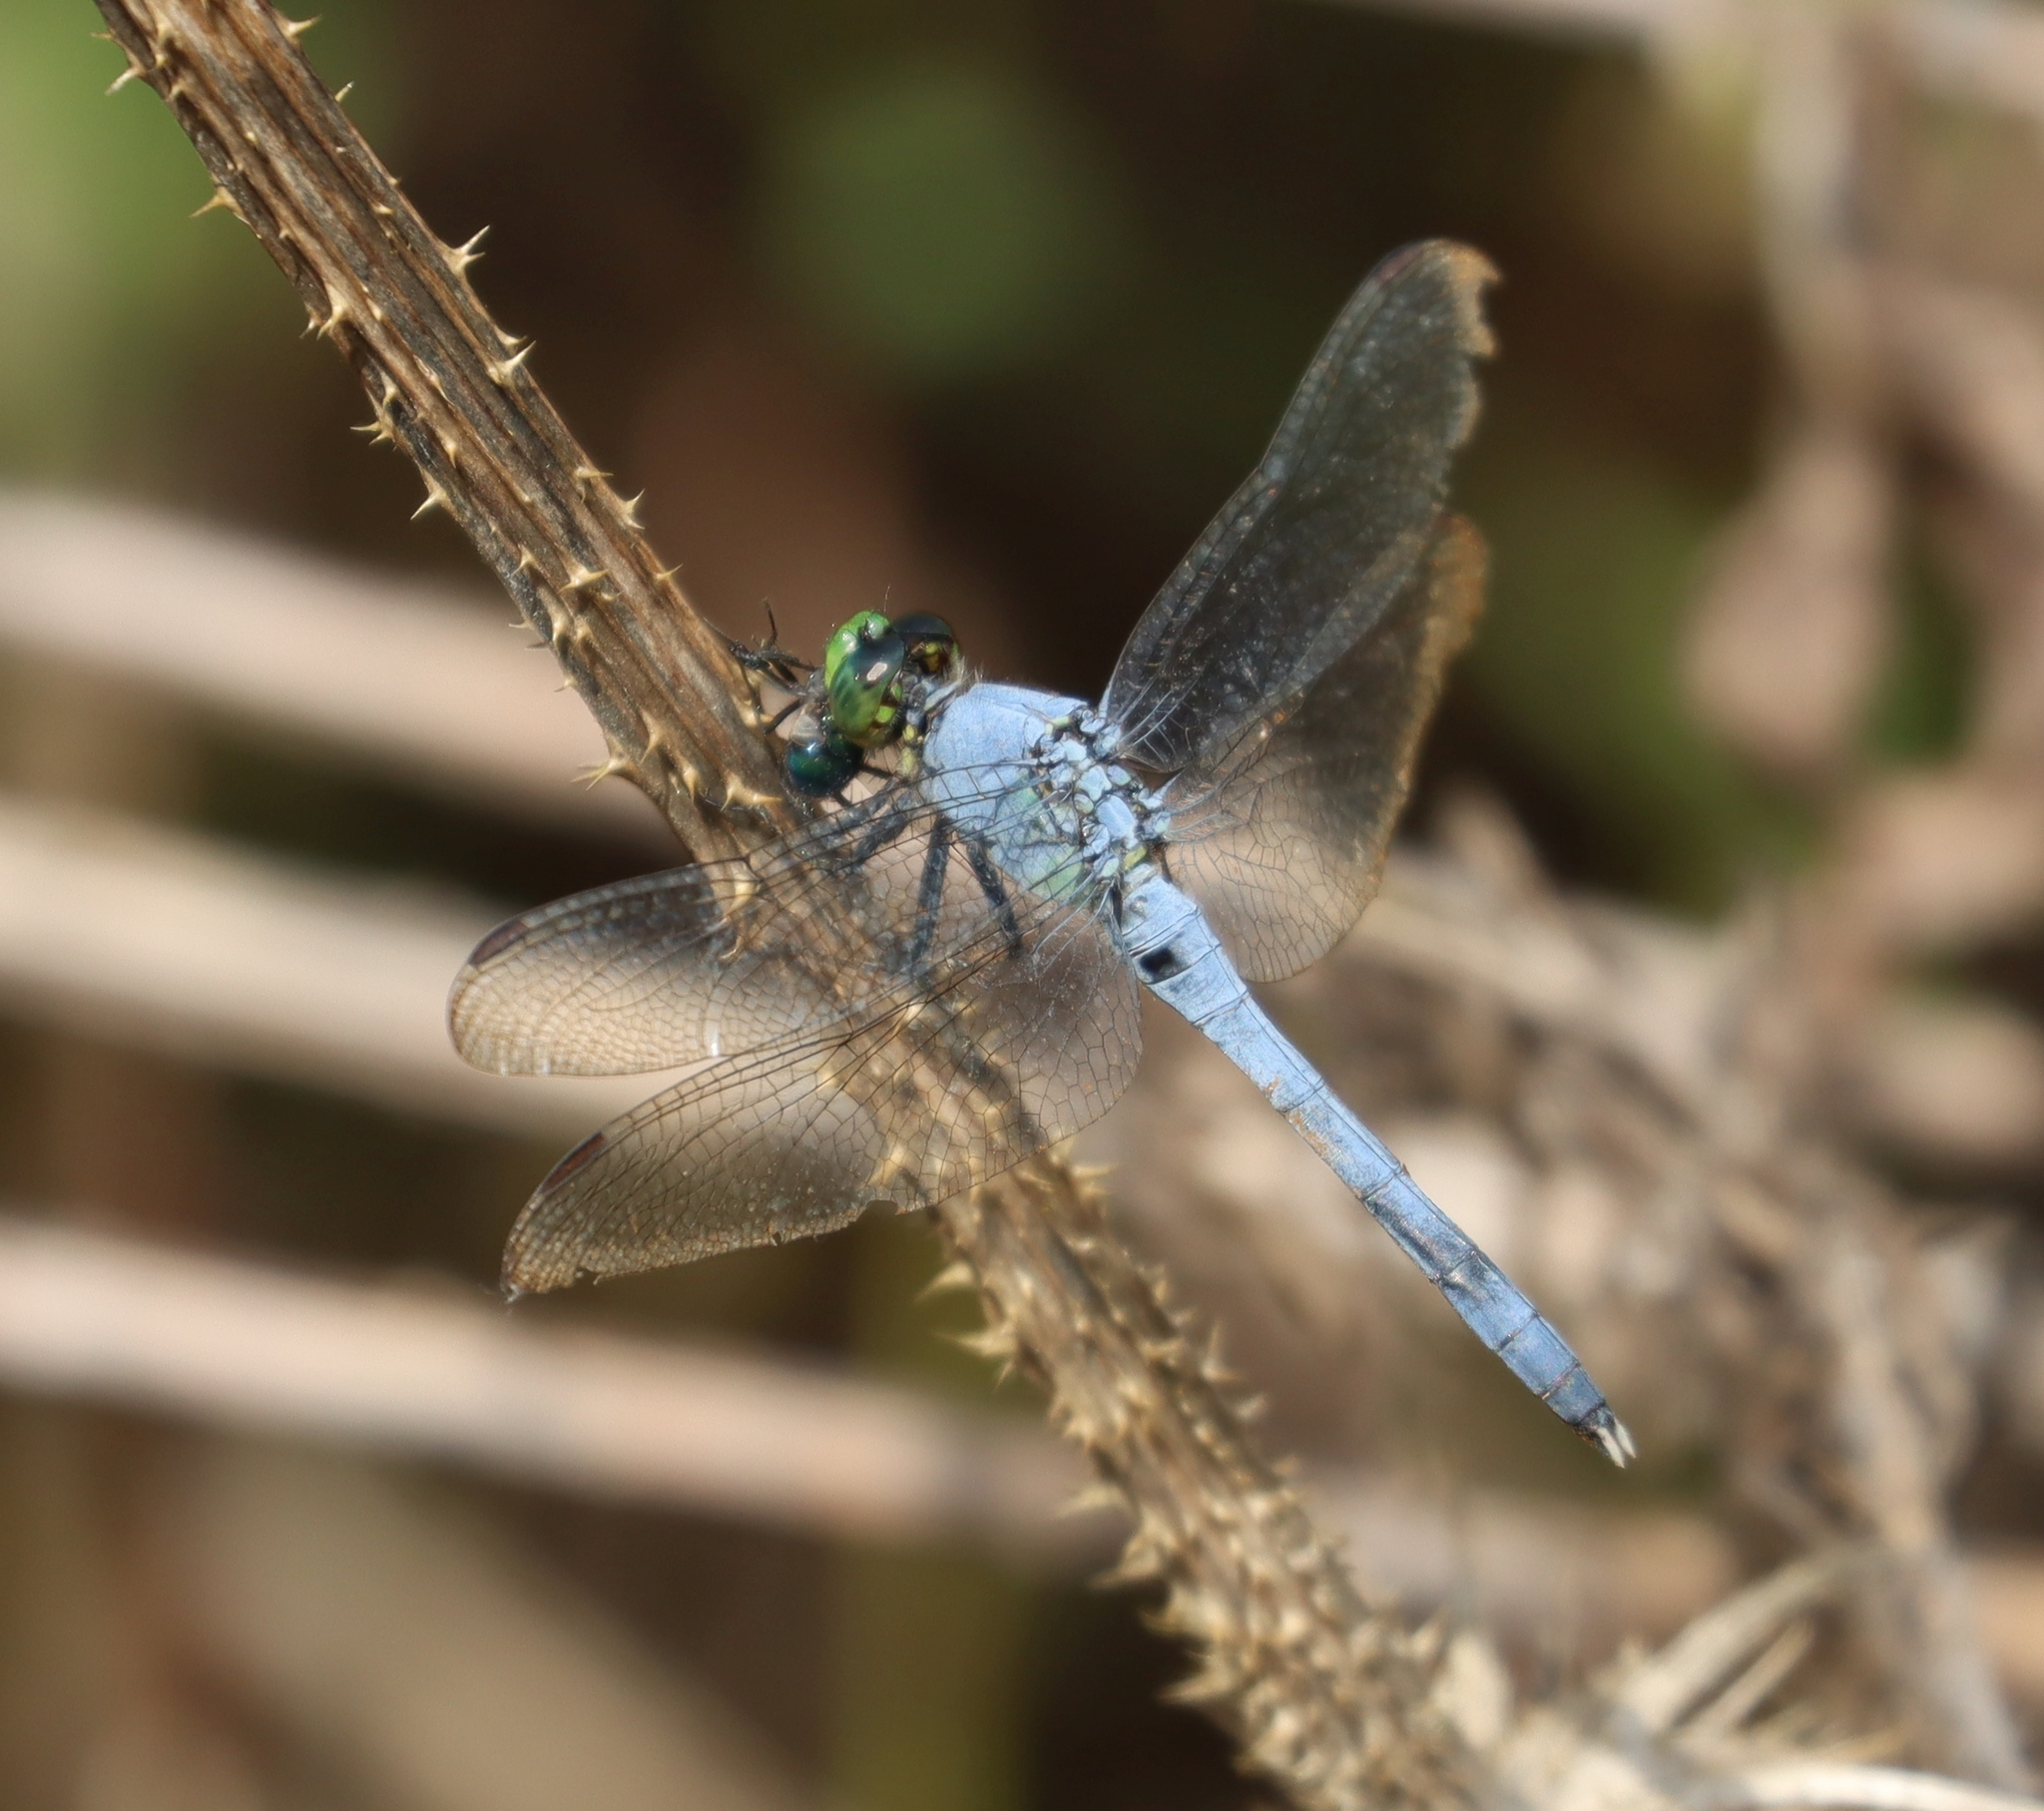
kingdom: Animalia
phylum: Arthropoda
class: Insecta
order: Odonata
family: Libellulidae
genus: Erythemis
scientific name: Erythemis simplicicollis
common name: Eastern pondhawk
